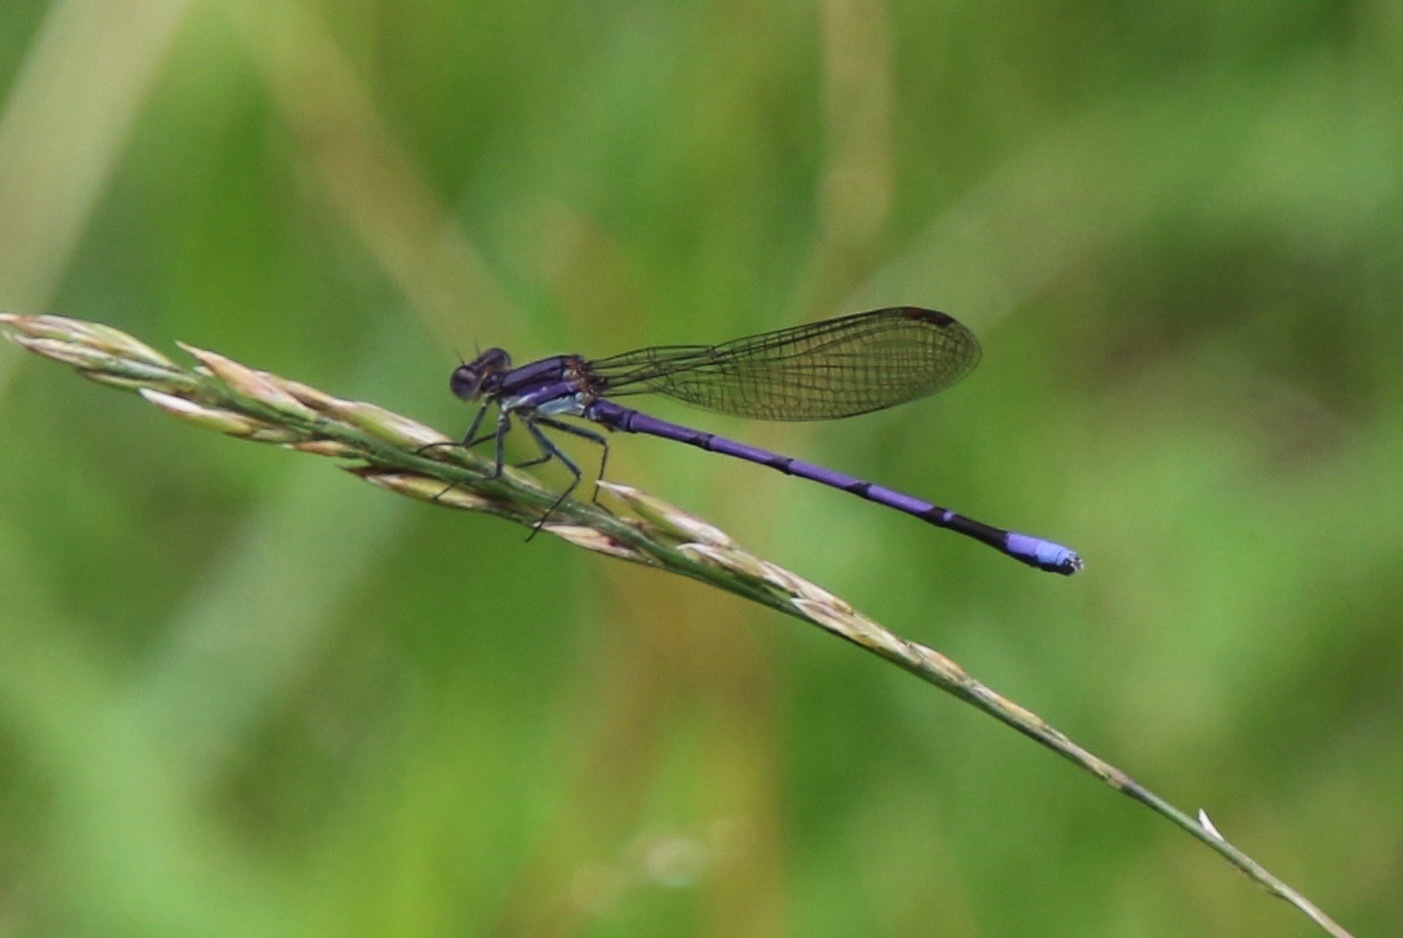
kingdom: Animalia
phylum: Arthropoda
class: Insecta
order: Odonata
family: Coenagrionidae
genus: Argia
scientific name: Argia fumipennis
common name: Variable dancer
